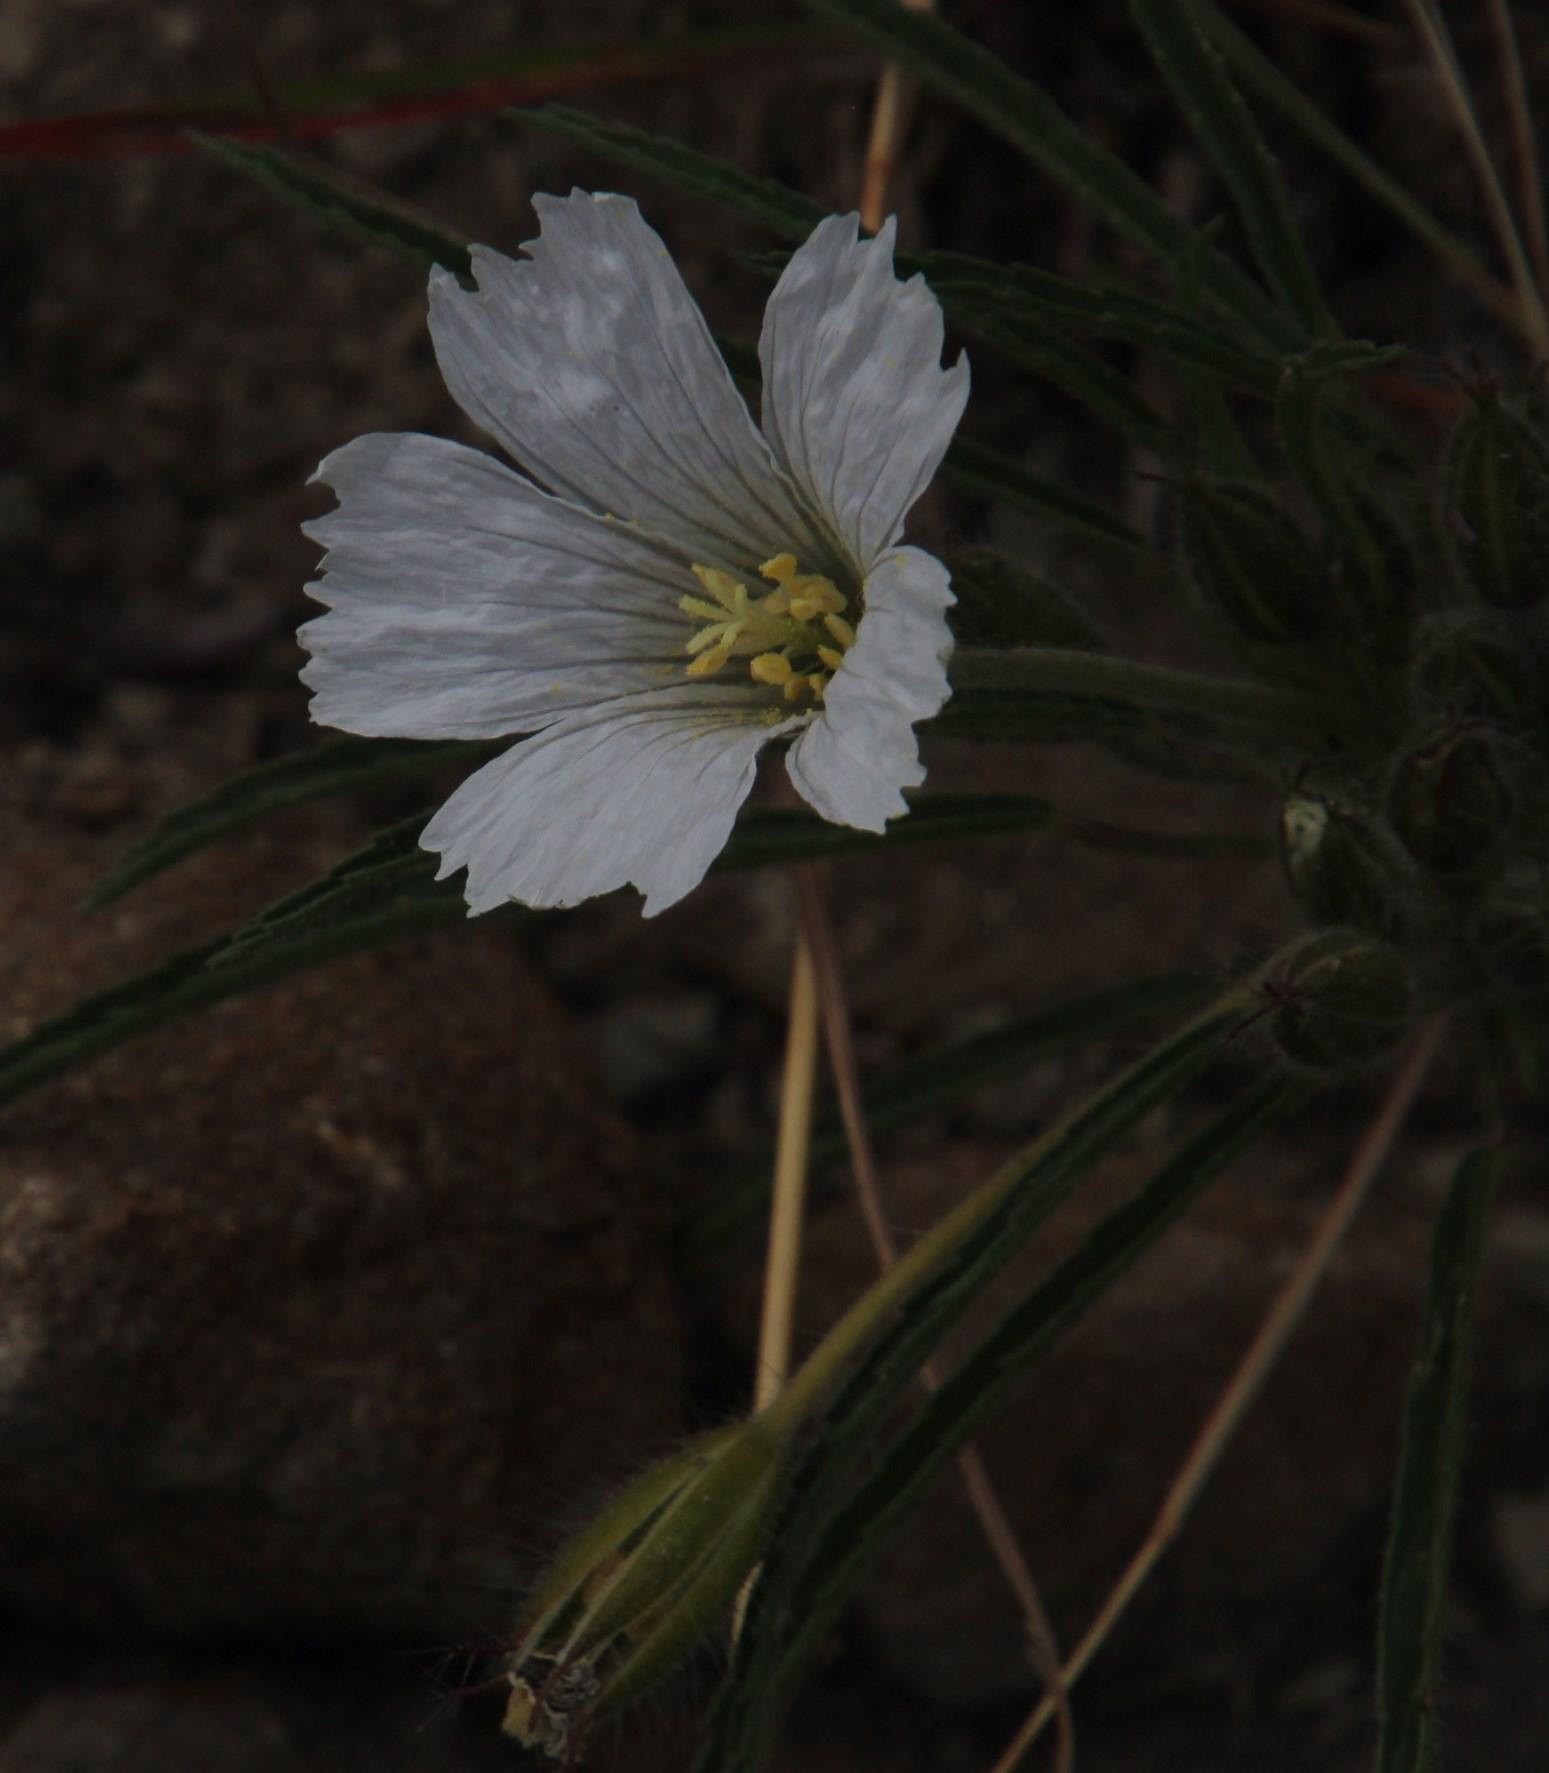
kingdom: Plantae
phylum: Tracheophyta
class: Magnoliopsida
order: Geraniales
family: Geraniaceae
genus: Monsonia
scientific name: Monsonia attenuata
